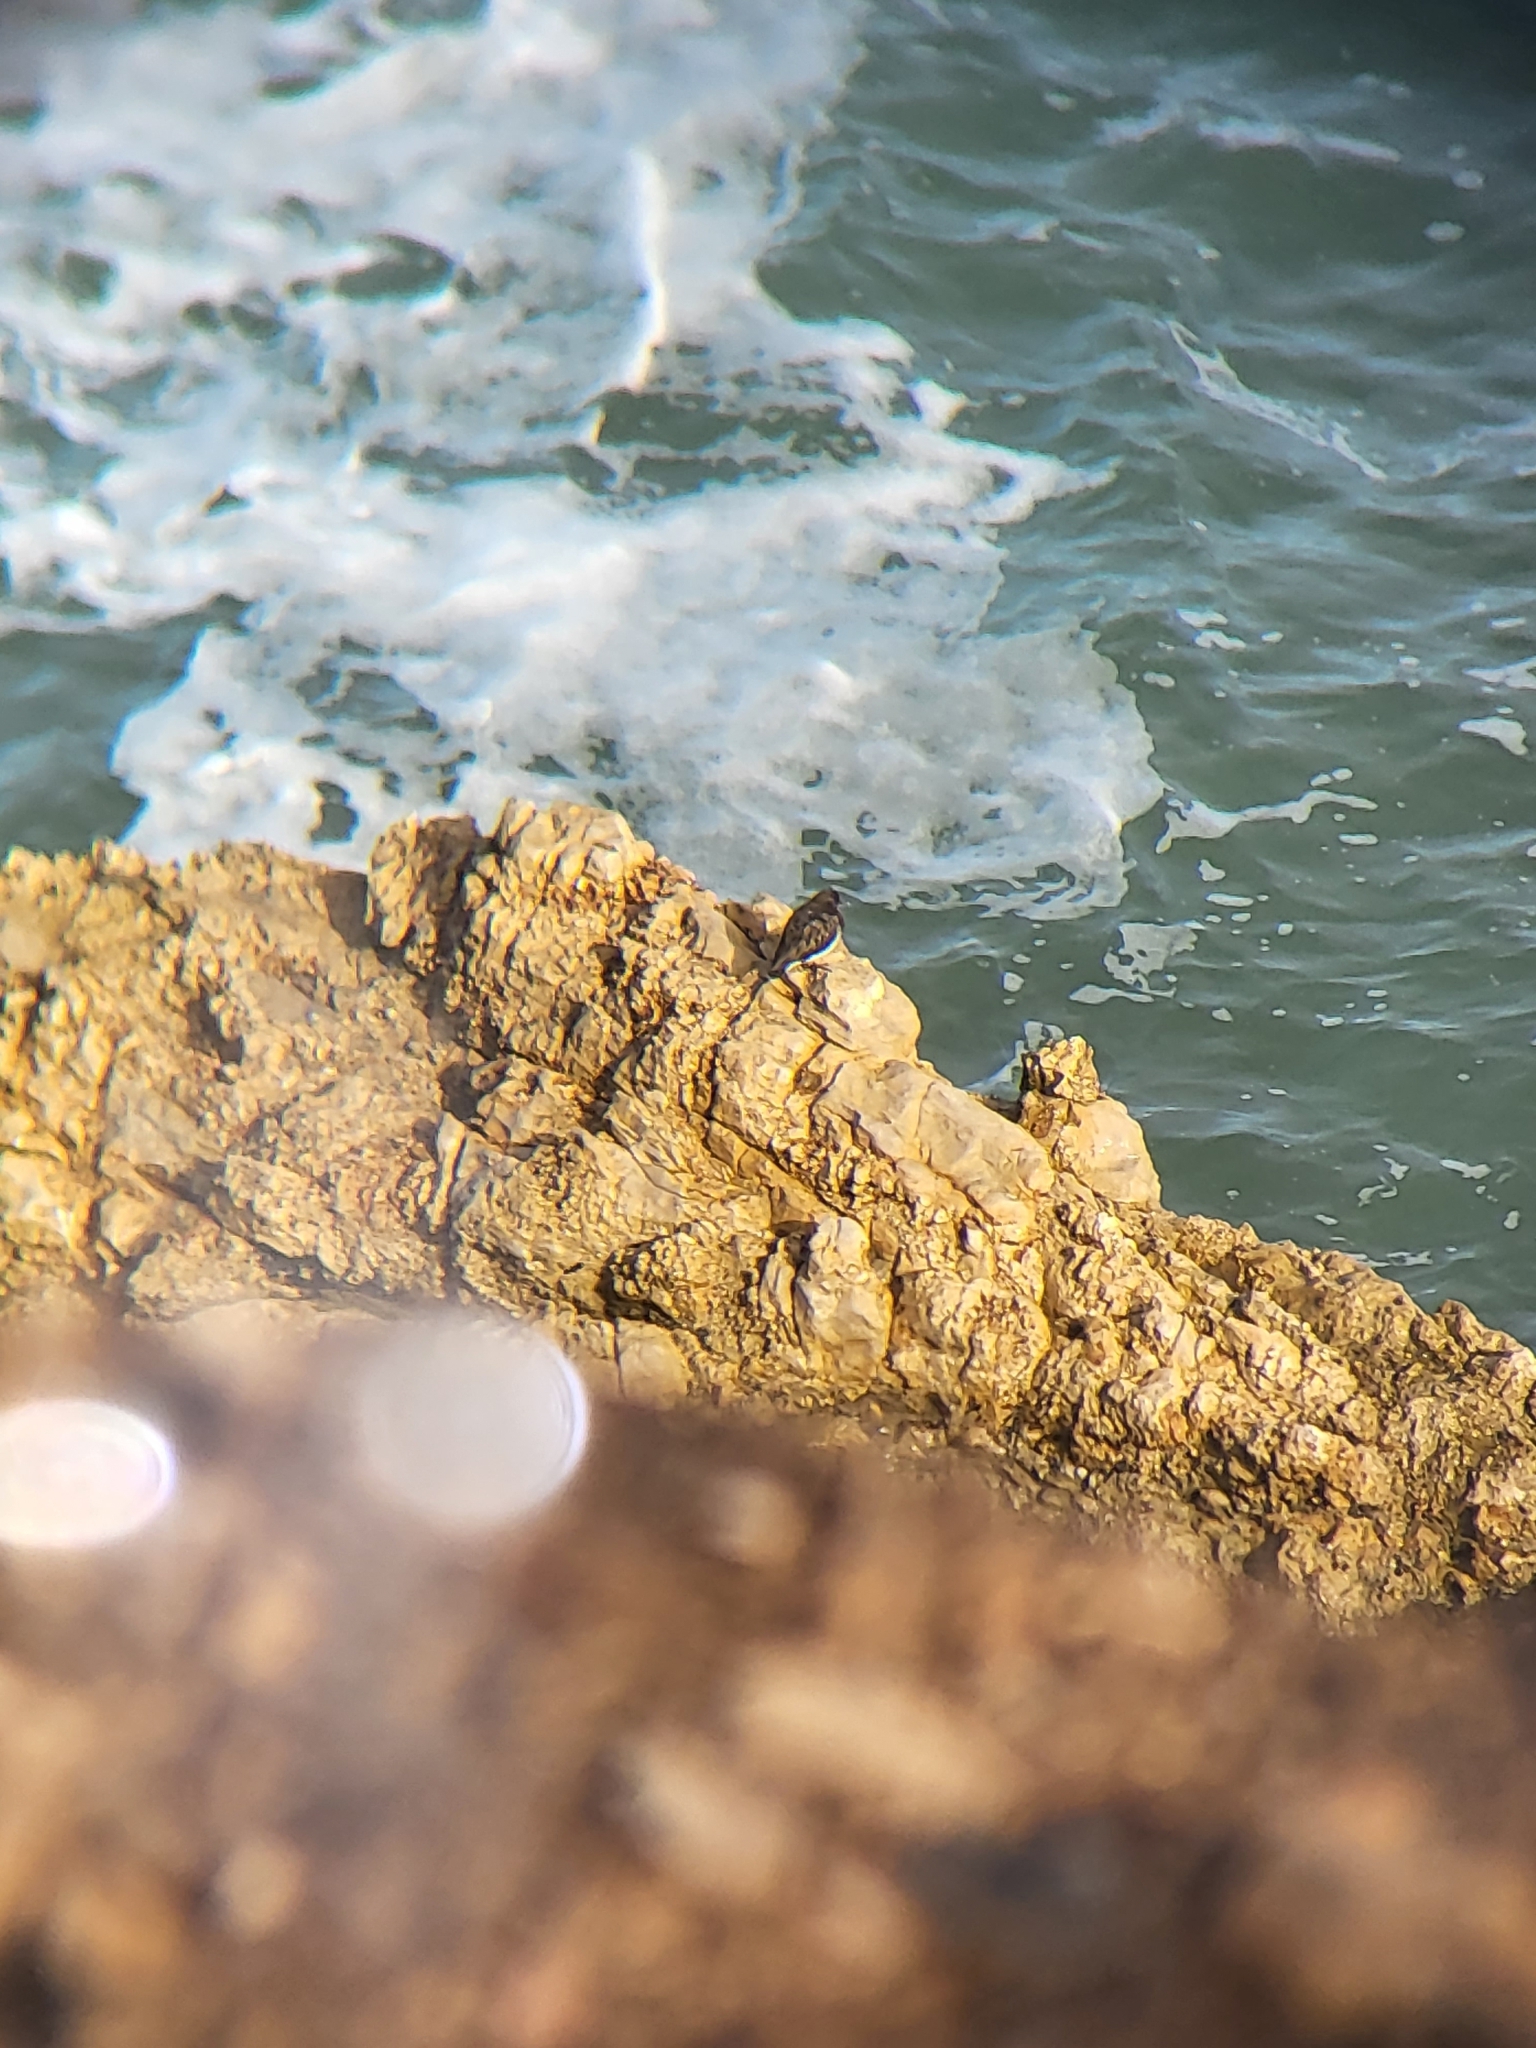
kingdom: Animalia
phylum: Chordata
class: Aves
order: Charadriiformes
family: Scolopacidae
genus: Arenaria
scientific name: Arenaria melanocephala
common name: Black turnstone
